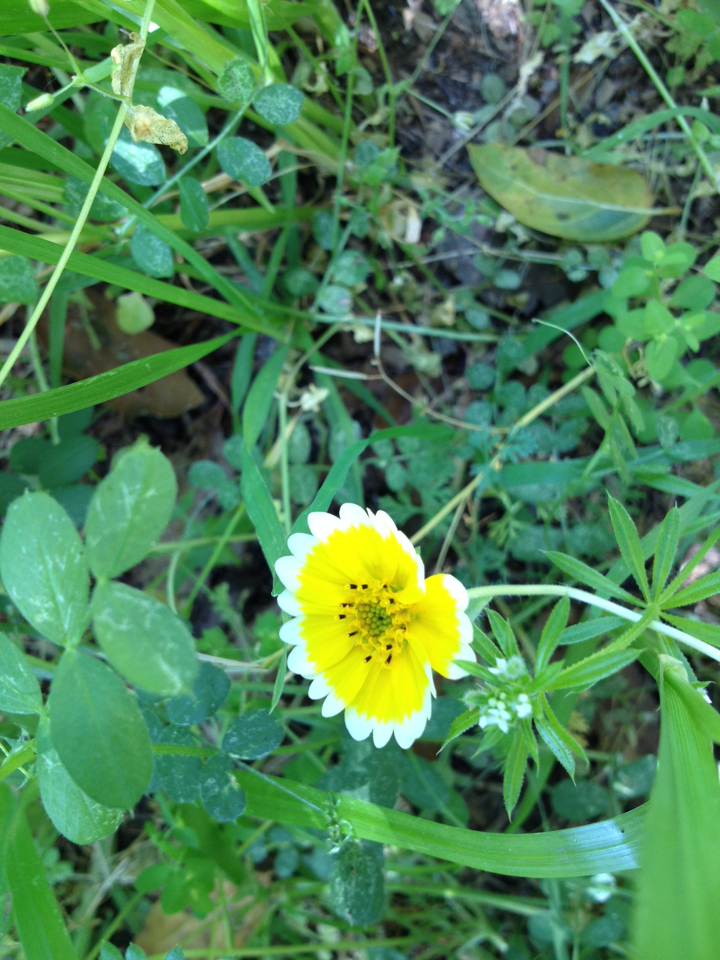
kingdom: Plantae
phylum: Tracheophyta
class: Magnoliopsida
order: Asterales
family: Asteraceae
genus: Layia
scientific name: Layia platyglossa
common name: Tidy-tips
